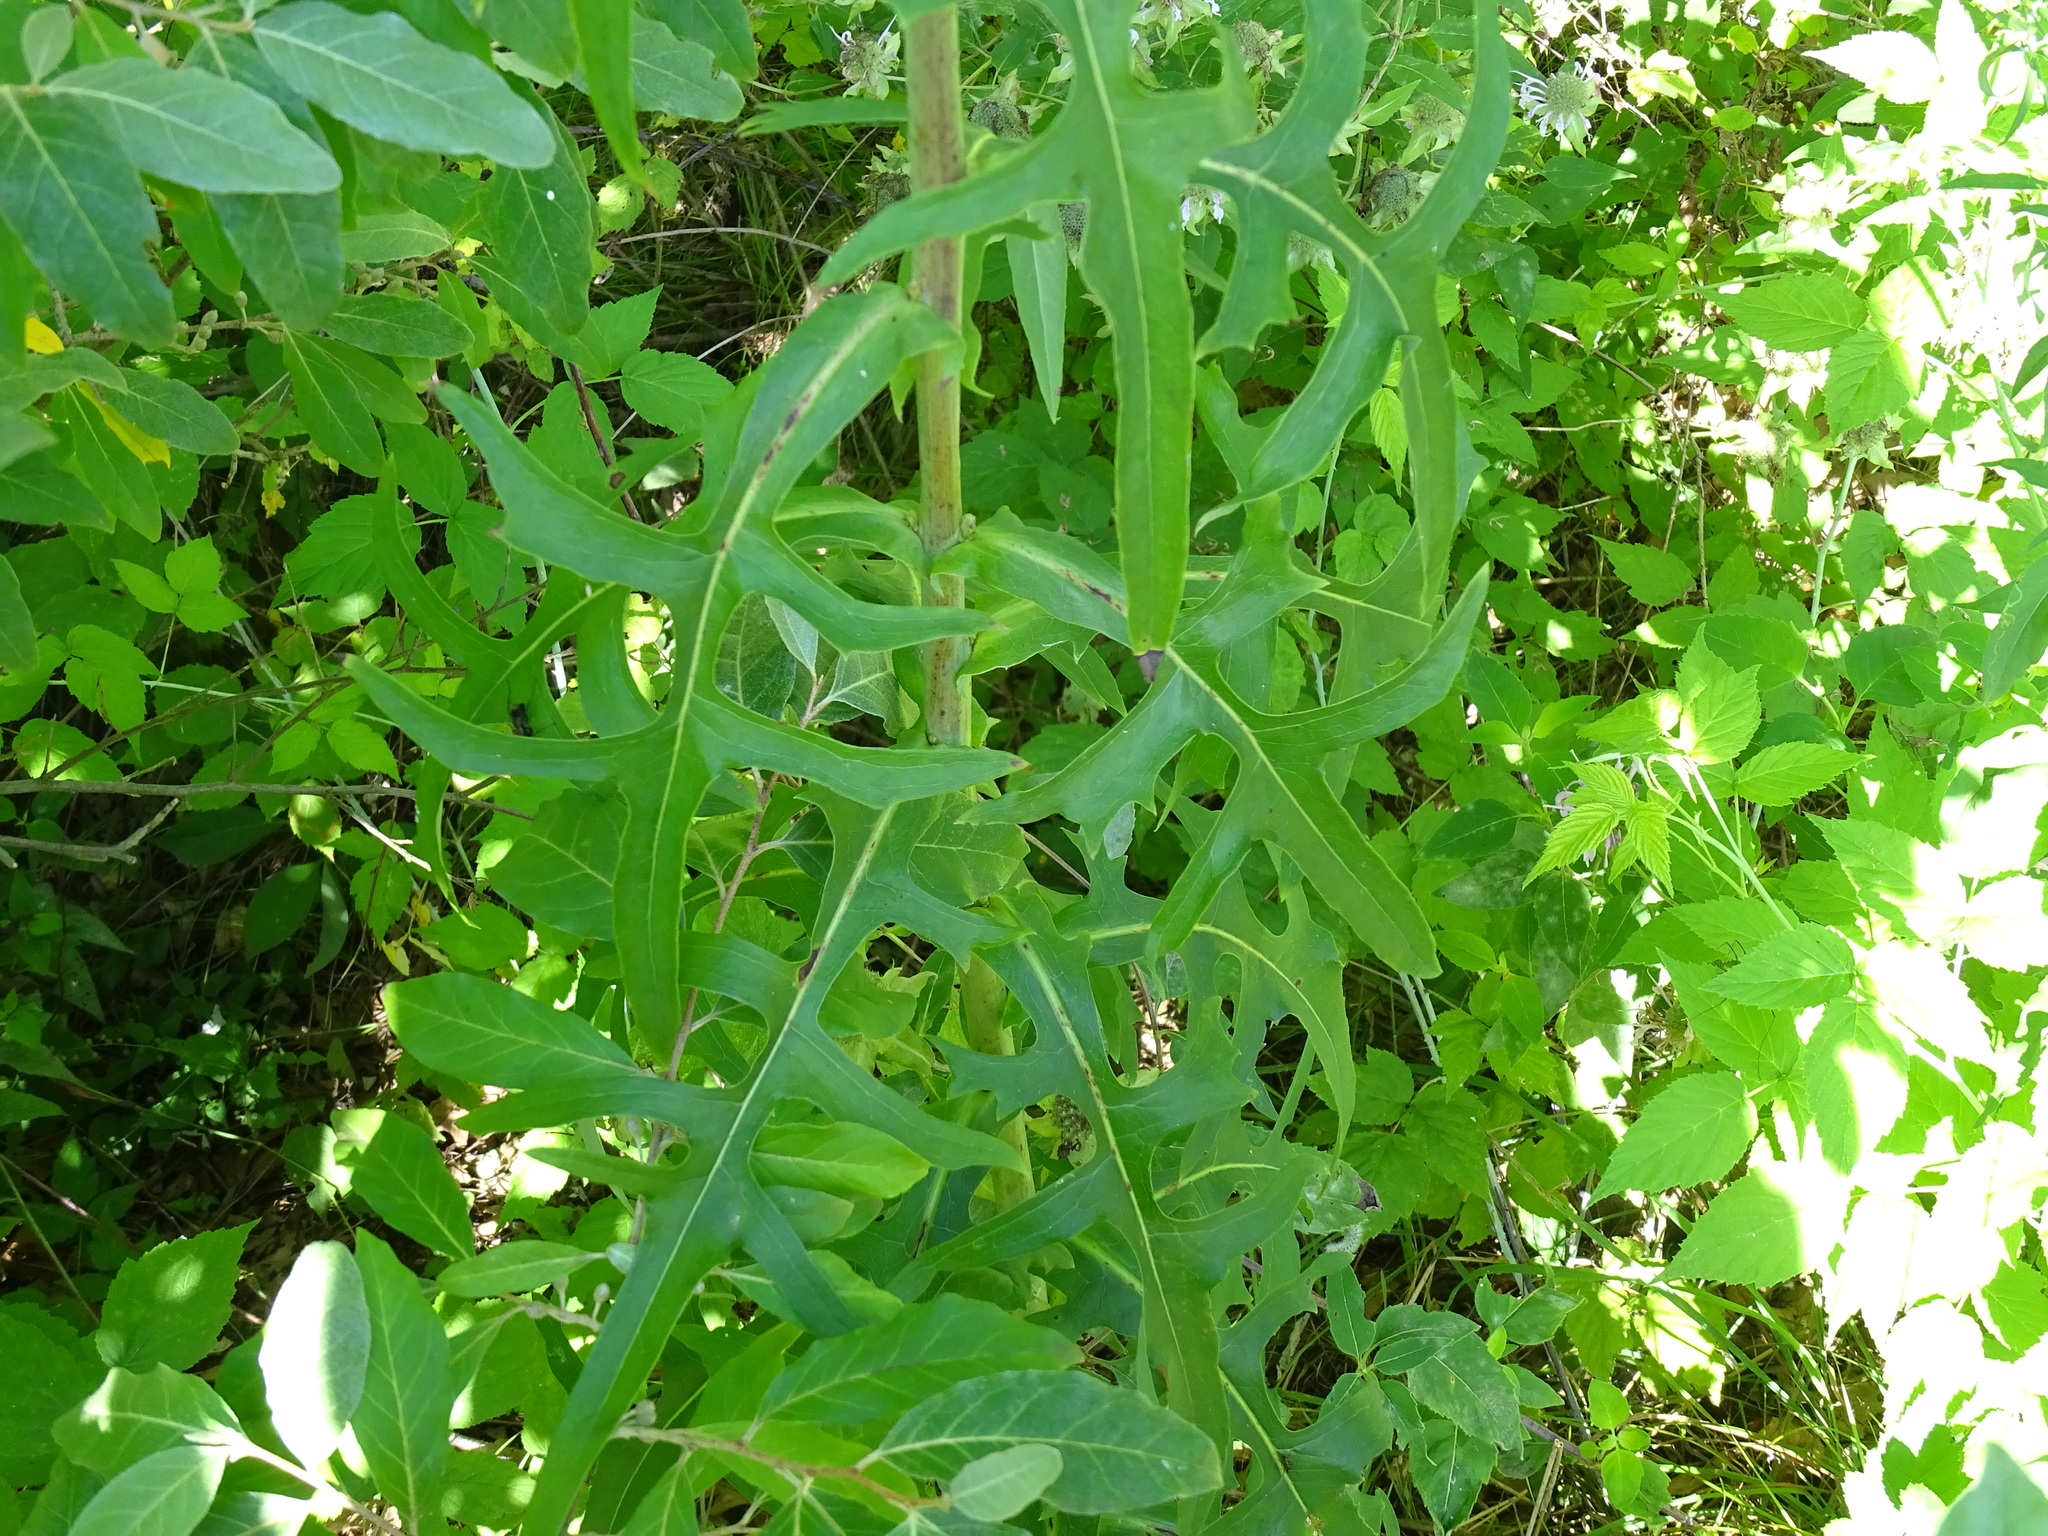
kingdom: Plantae
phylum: Tracheophyta
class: Magnoliopsida
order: Asterales
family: Asteraceae
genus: Lactuca
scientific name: Lactuca canadensis
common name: Canada lettuce
